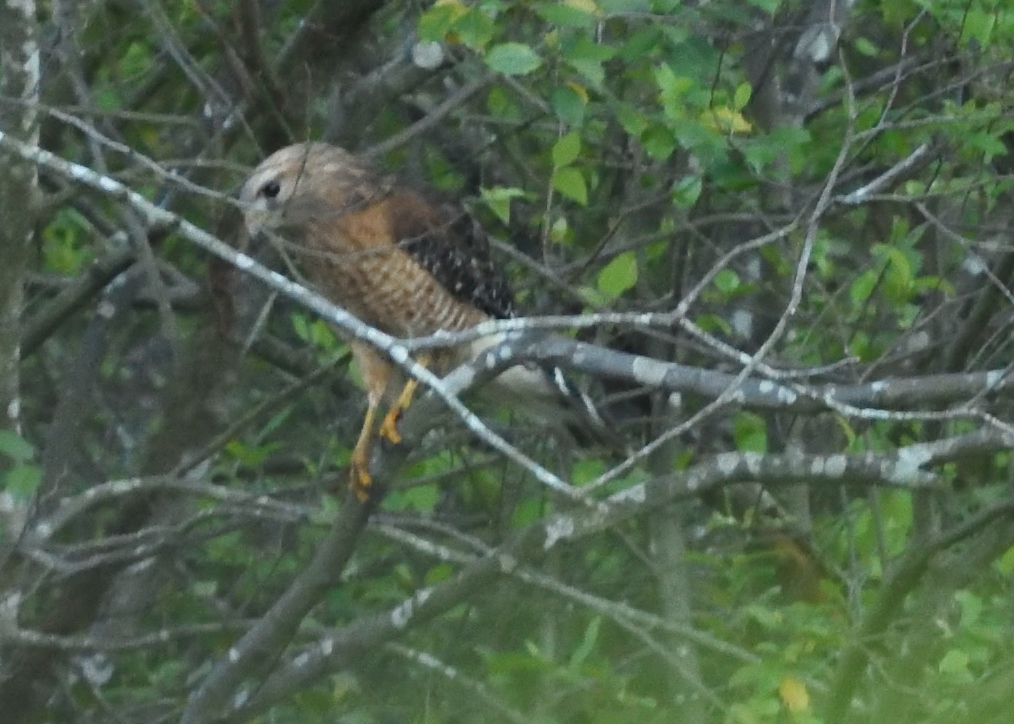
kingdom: Animalia
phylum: Chordata
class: Aves
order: Accipitriformes
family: Accipitridae
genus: Buteo
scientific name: Buteo lineatus
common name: Red-shouldered hawk
